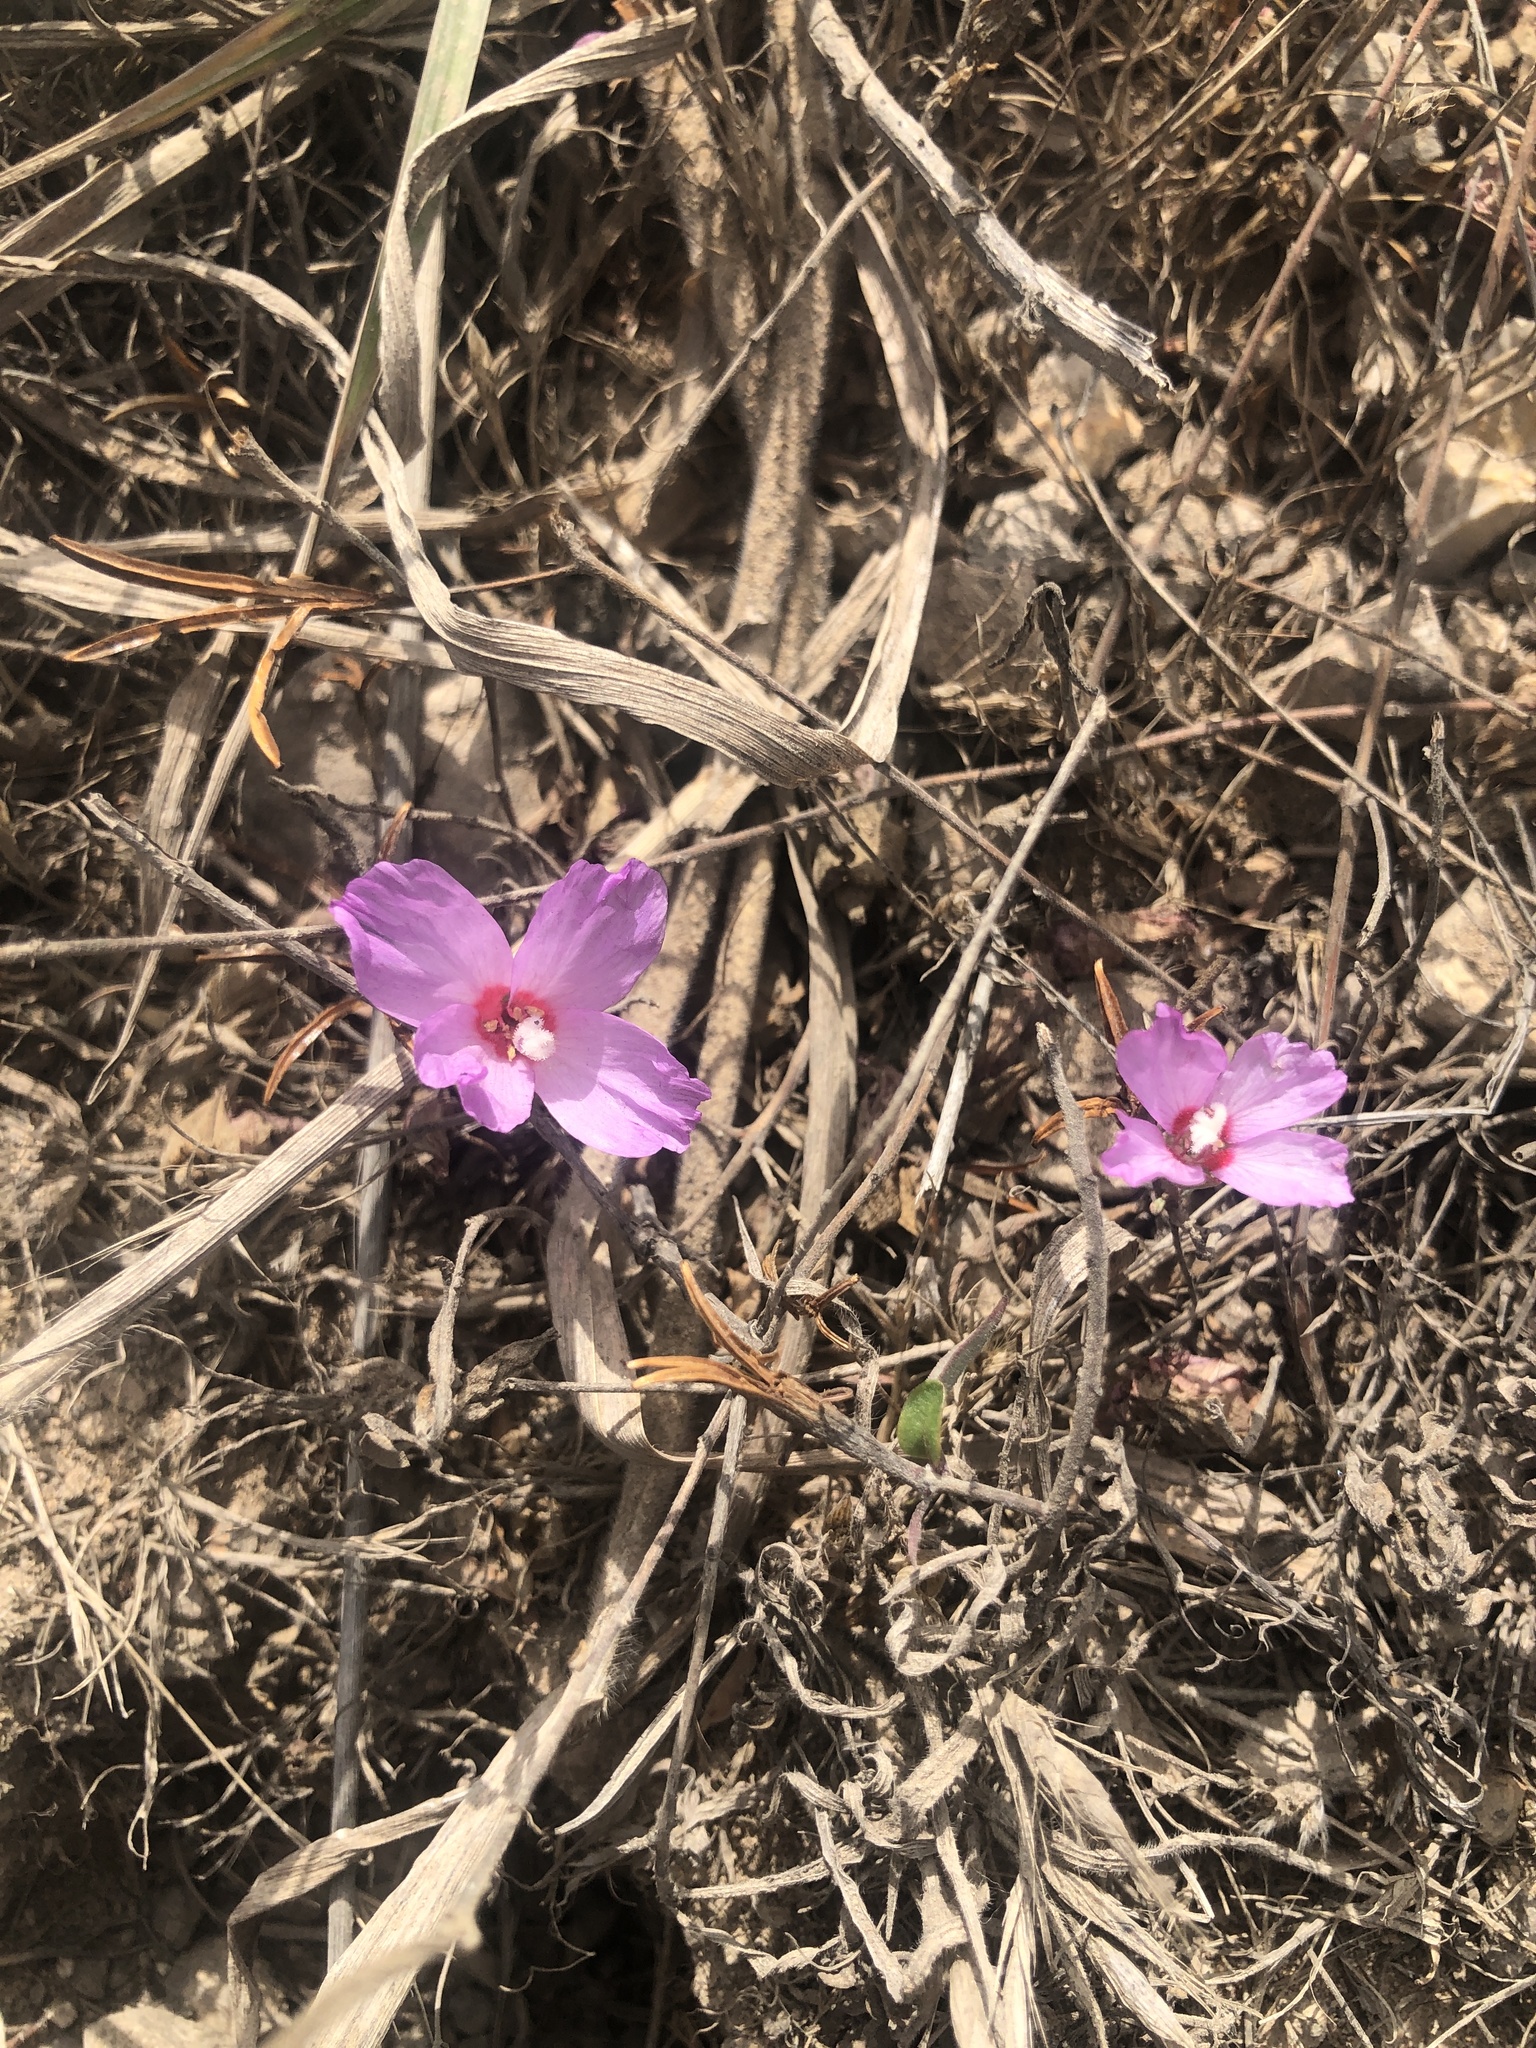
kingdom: Plantae
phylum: Tracheophyta
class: Magnoliopsida
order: Myrtales
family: Onagraceae
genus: Clarkia
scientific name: Clarkia rubicunda
